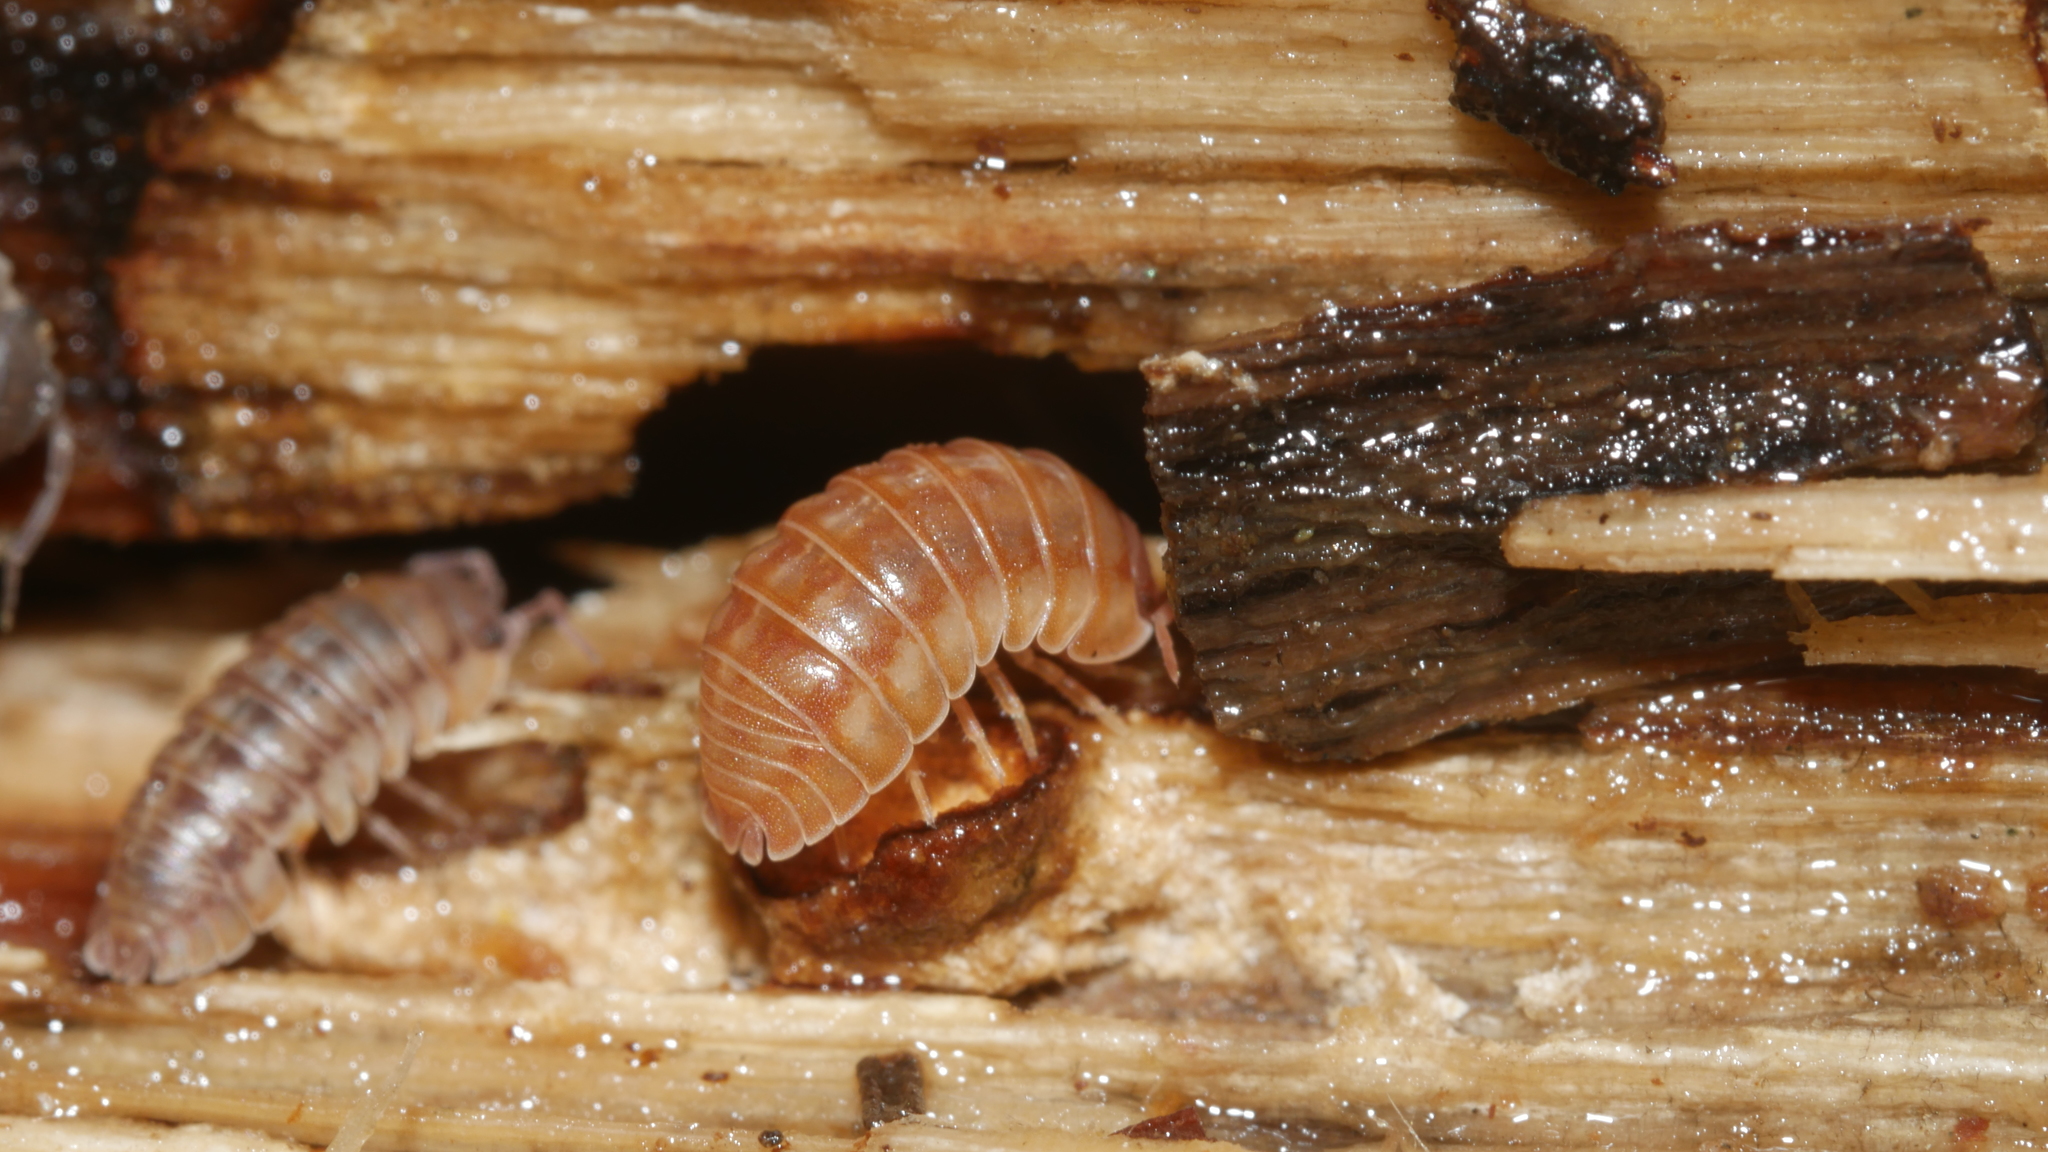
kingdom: Animalia
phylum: Arthropoda
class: Malacostraca
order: Isopoda
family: Armadillidiidae
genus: Armadillidium
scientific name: Armadillidium nasatum
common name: Isopod
